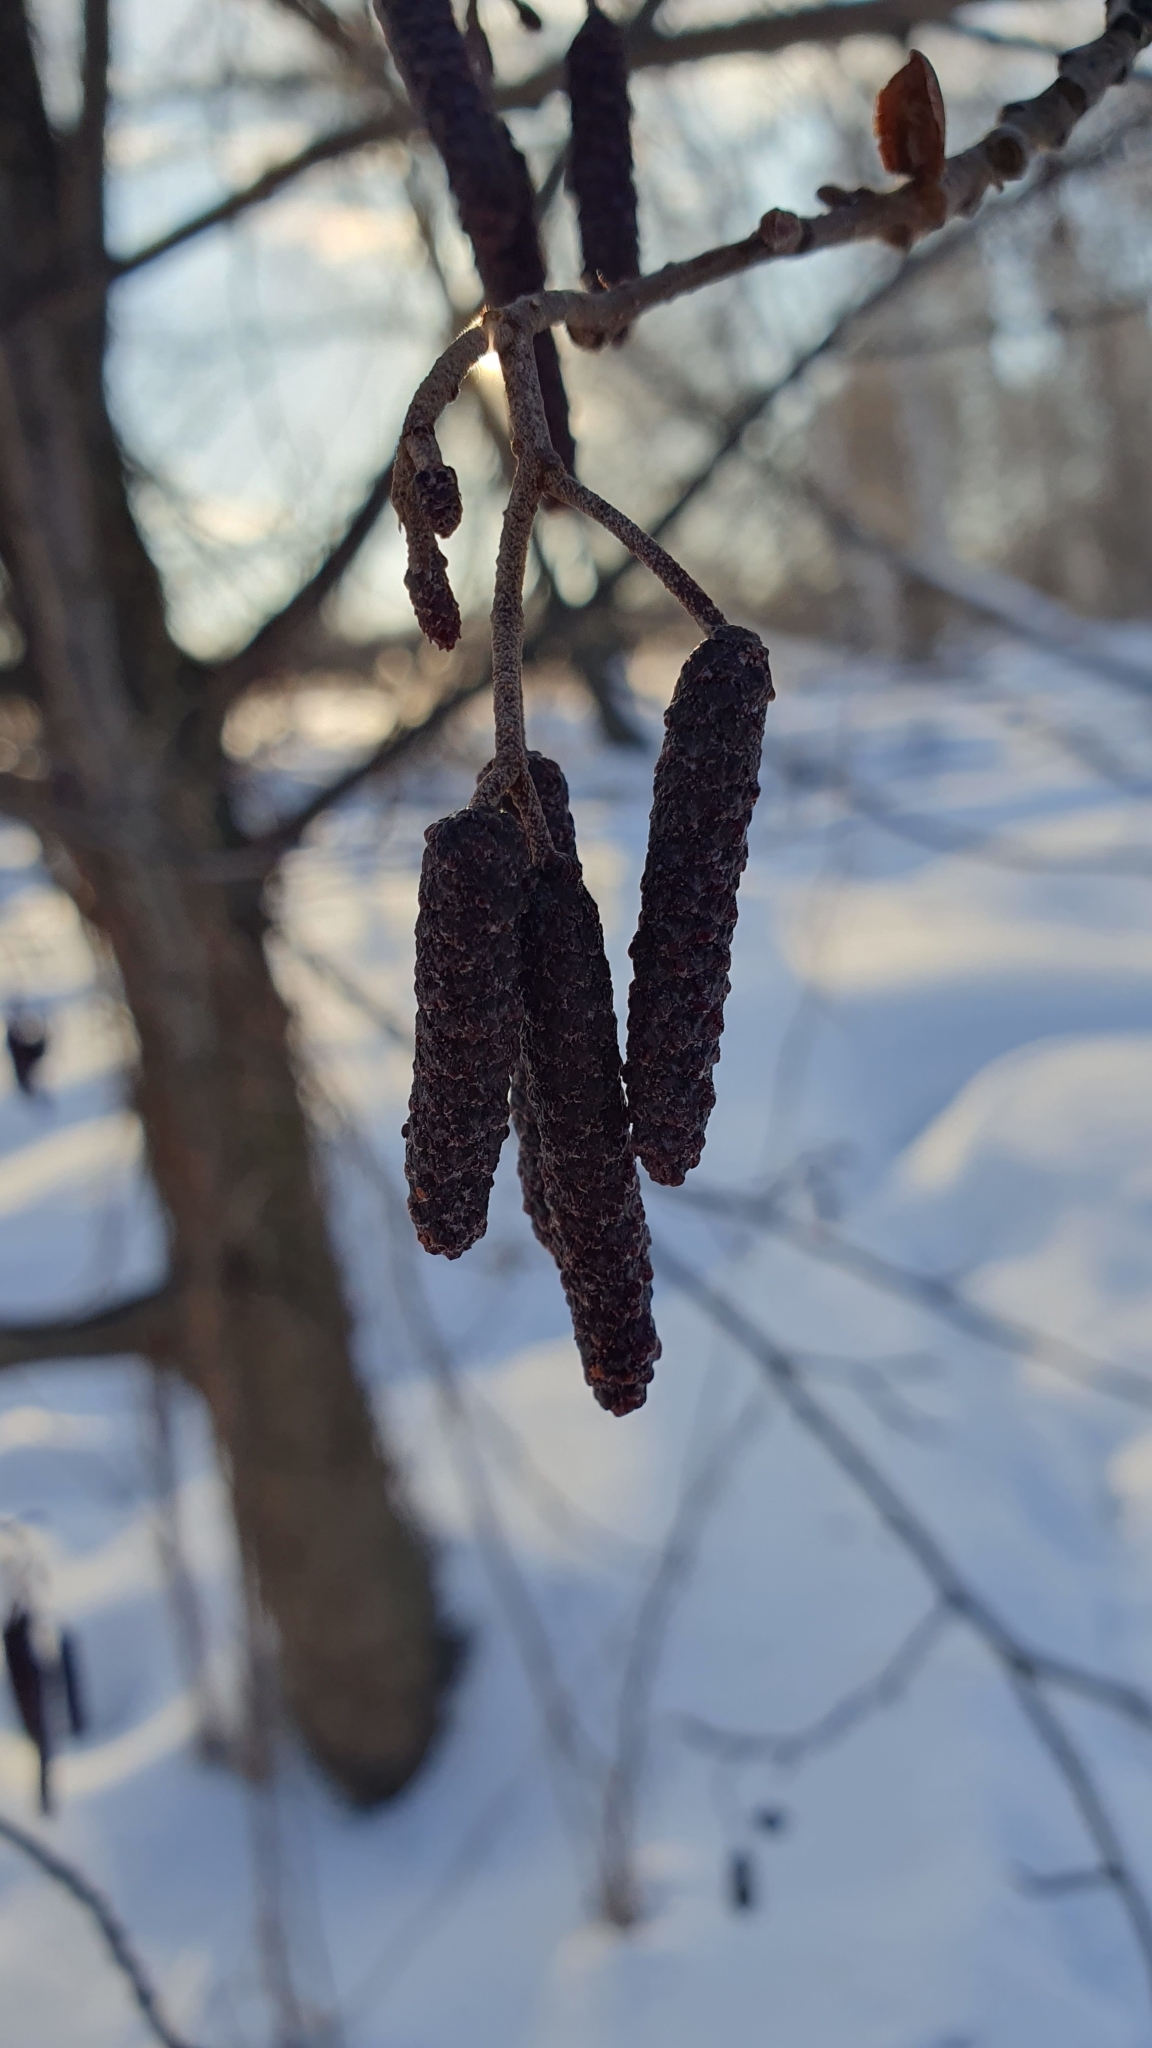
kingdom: Plantae
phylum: Tracheophyta
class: Magnoliopsida
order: Fagales
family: Betulaceae
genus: Alnus
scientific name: Alnus glutinosa
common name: Black alder
